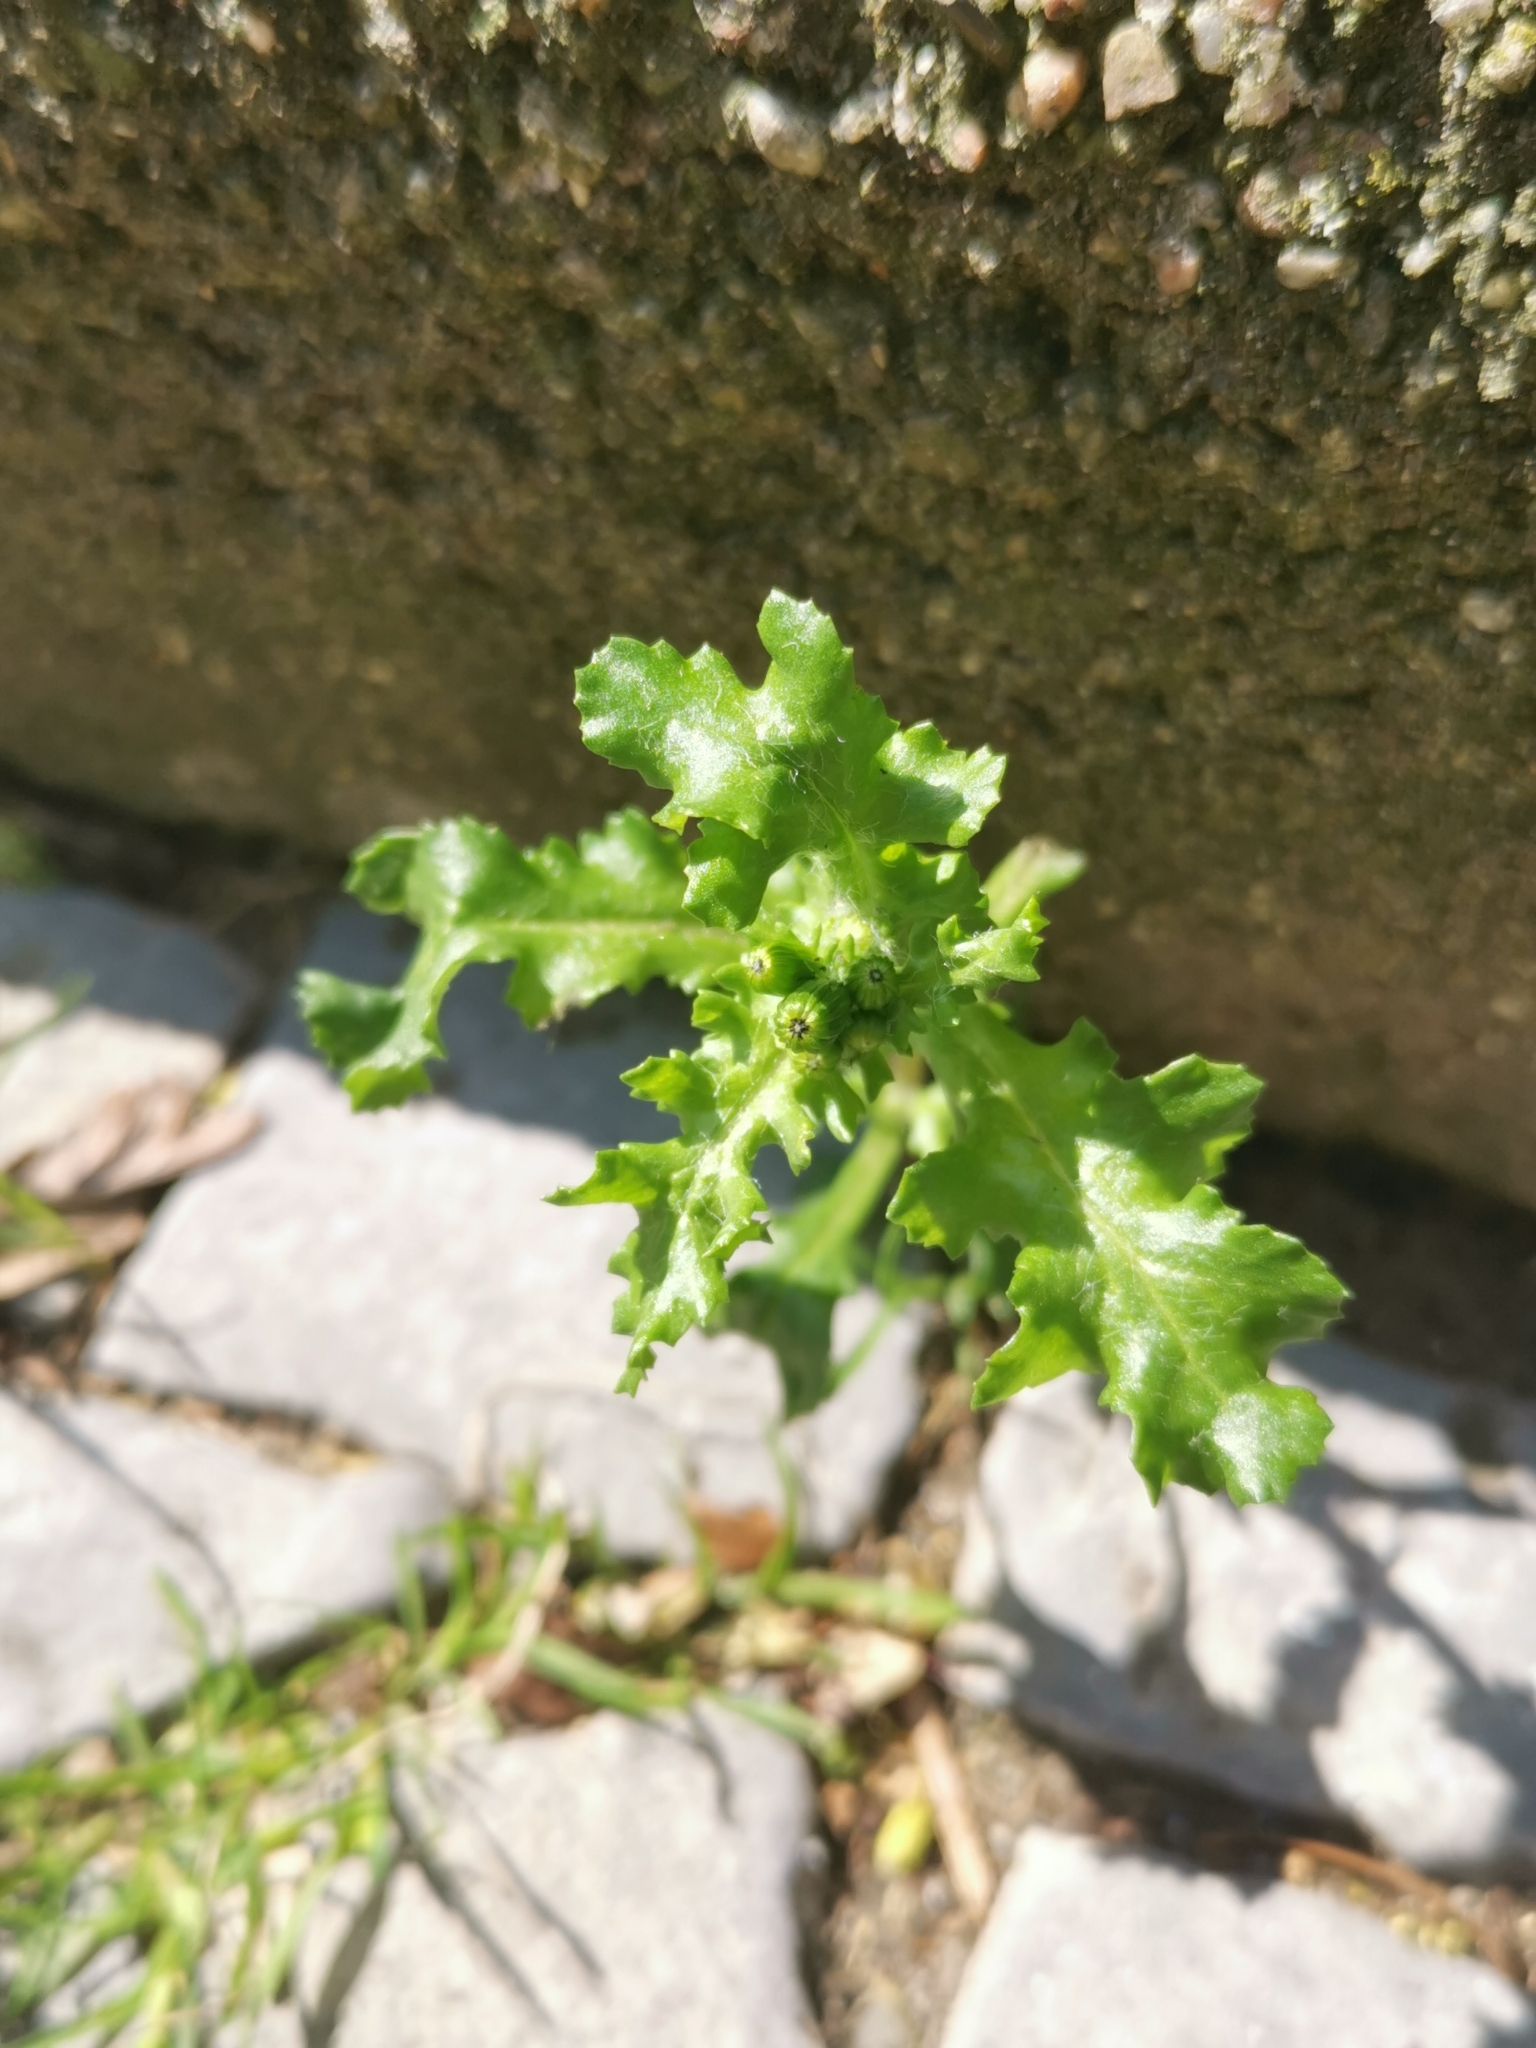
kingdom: Plantae
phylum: Tracheophyta
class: Magnoliopsida
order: Asterales
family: Asteraceae
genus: Senecio
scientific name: Senecio vulgaris
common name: Old-man-in-the-spring
